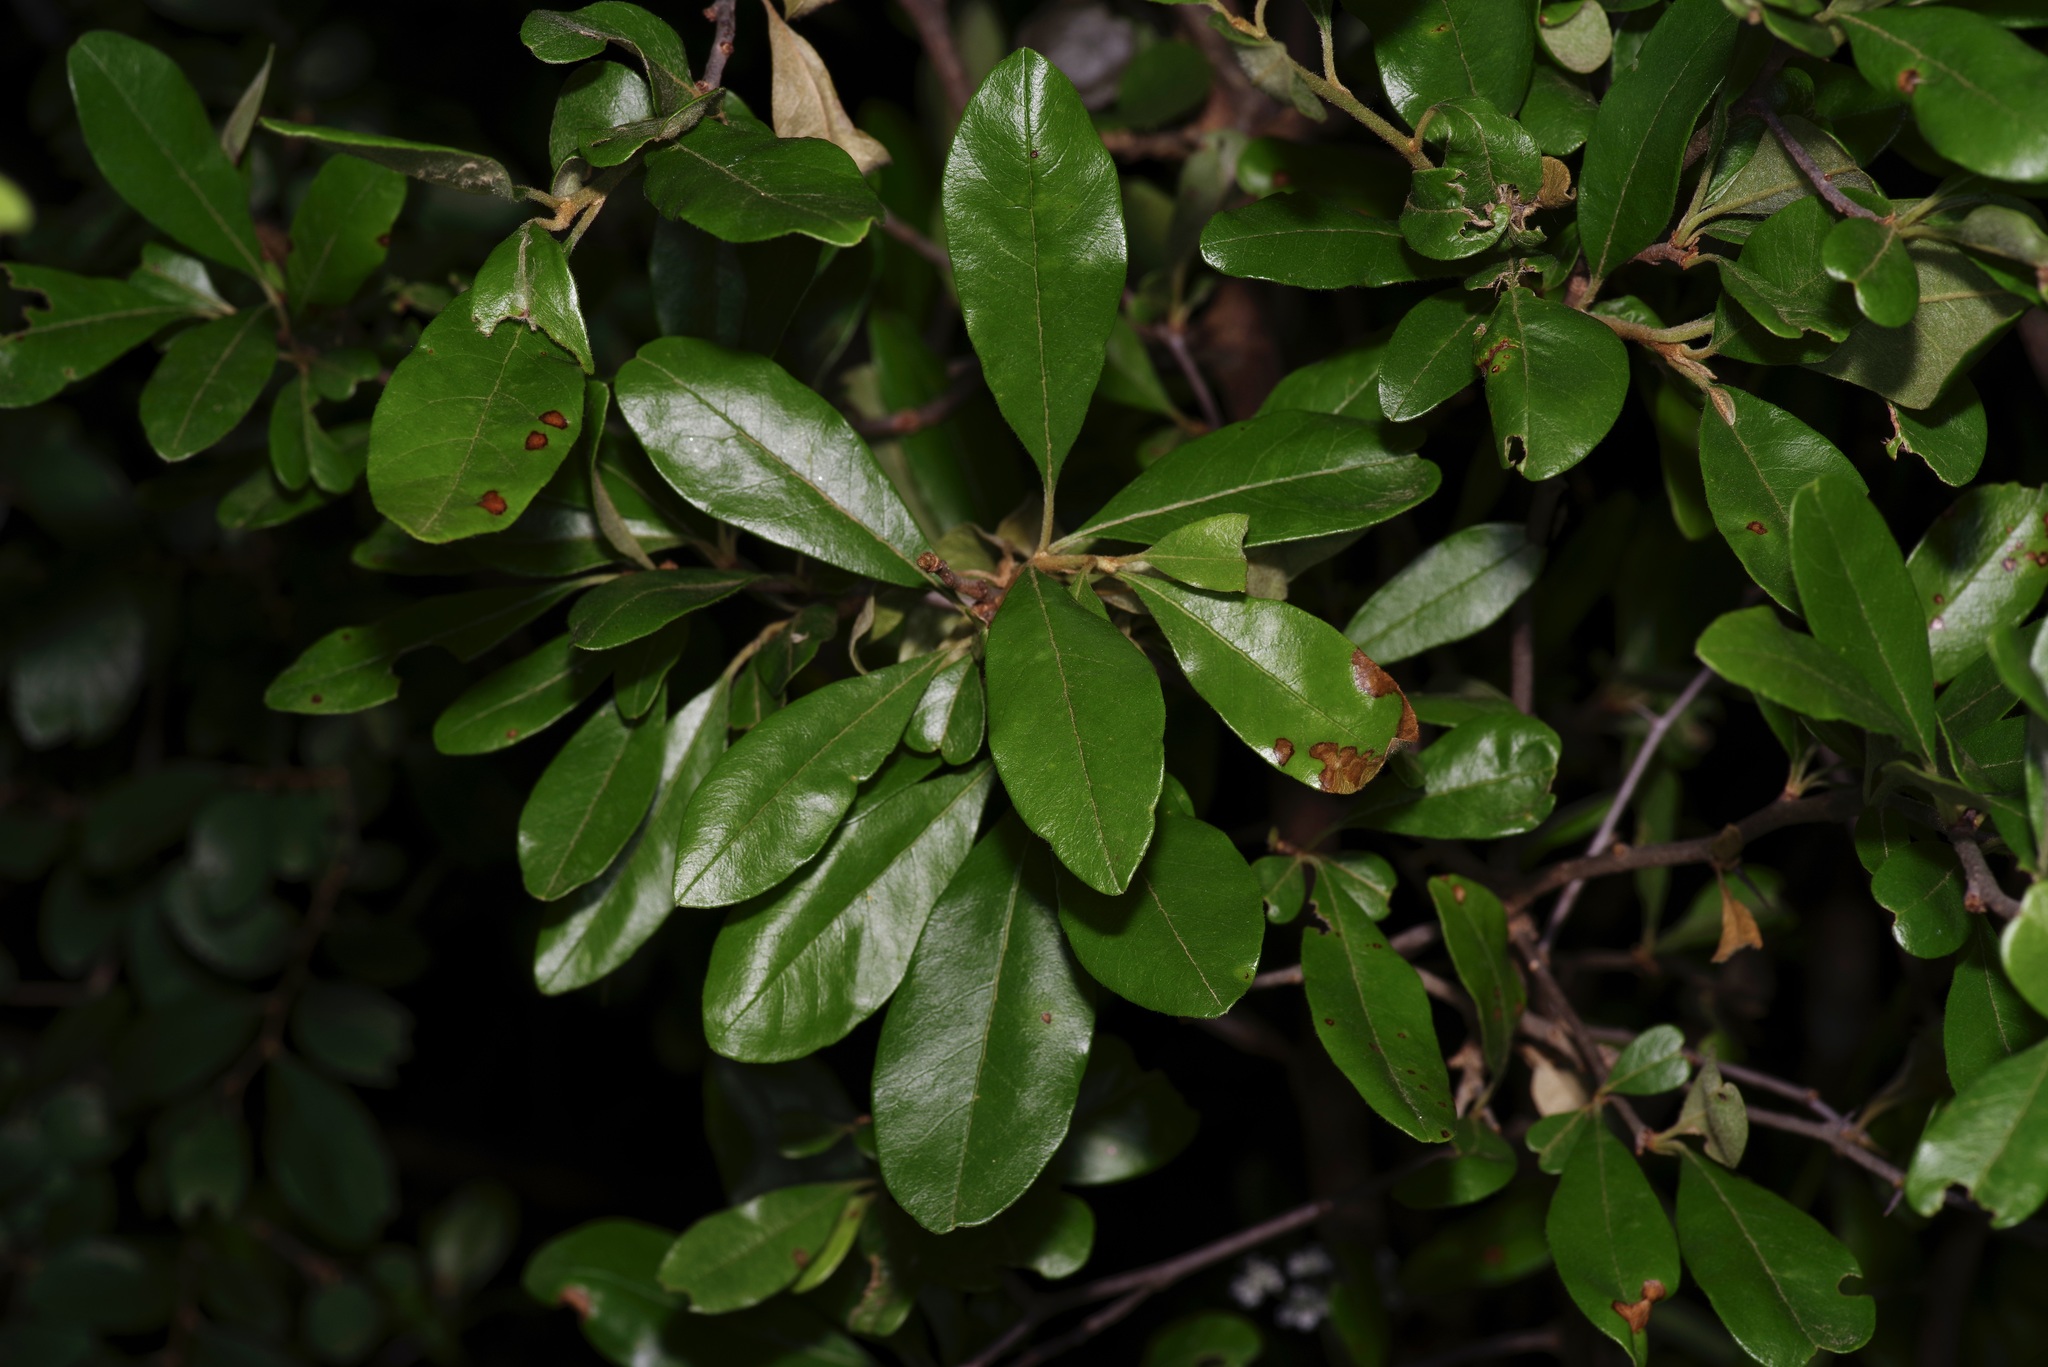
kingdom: Plantae
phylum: Tracheophyta
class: Magnoliopsida
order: Ericales
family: Sapotaceae
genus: Sideroxylon
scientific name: Sideroxylon lanuginosum
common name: Chittamwood
